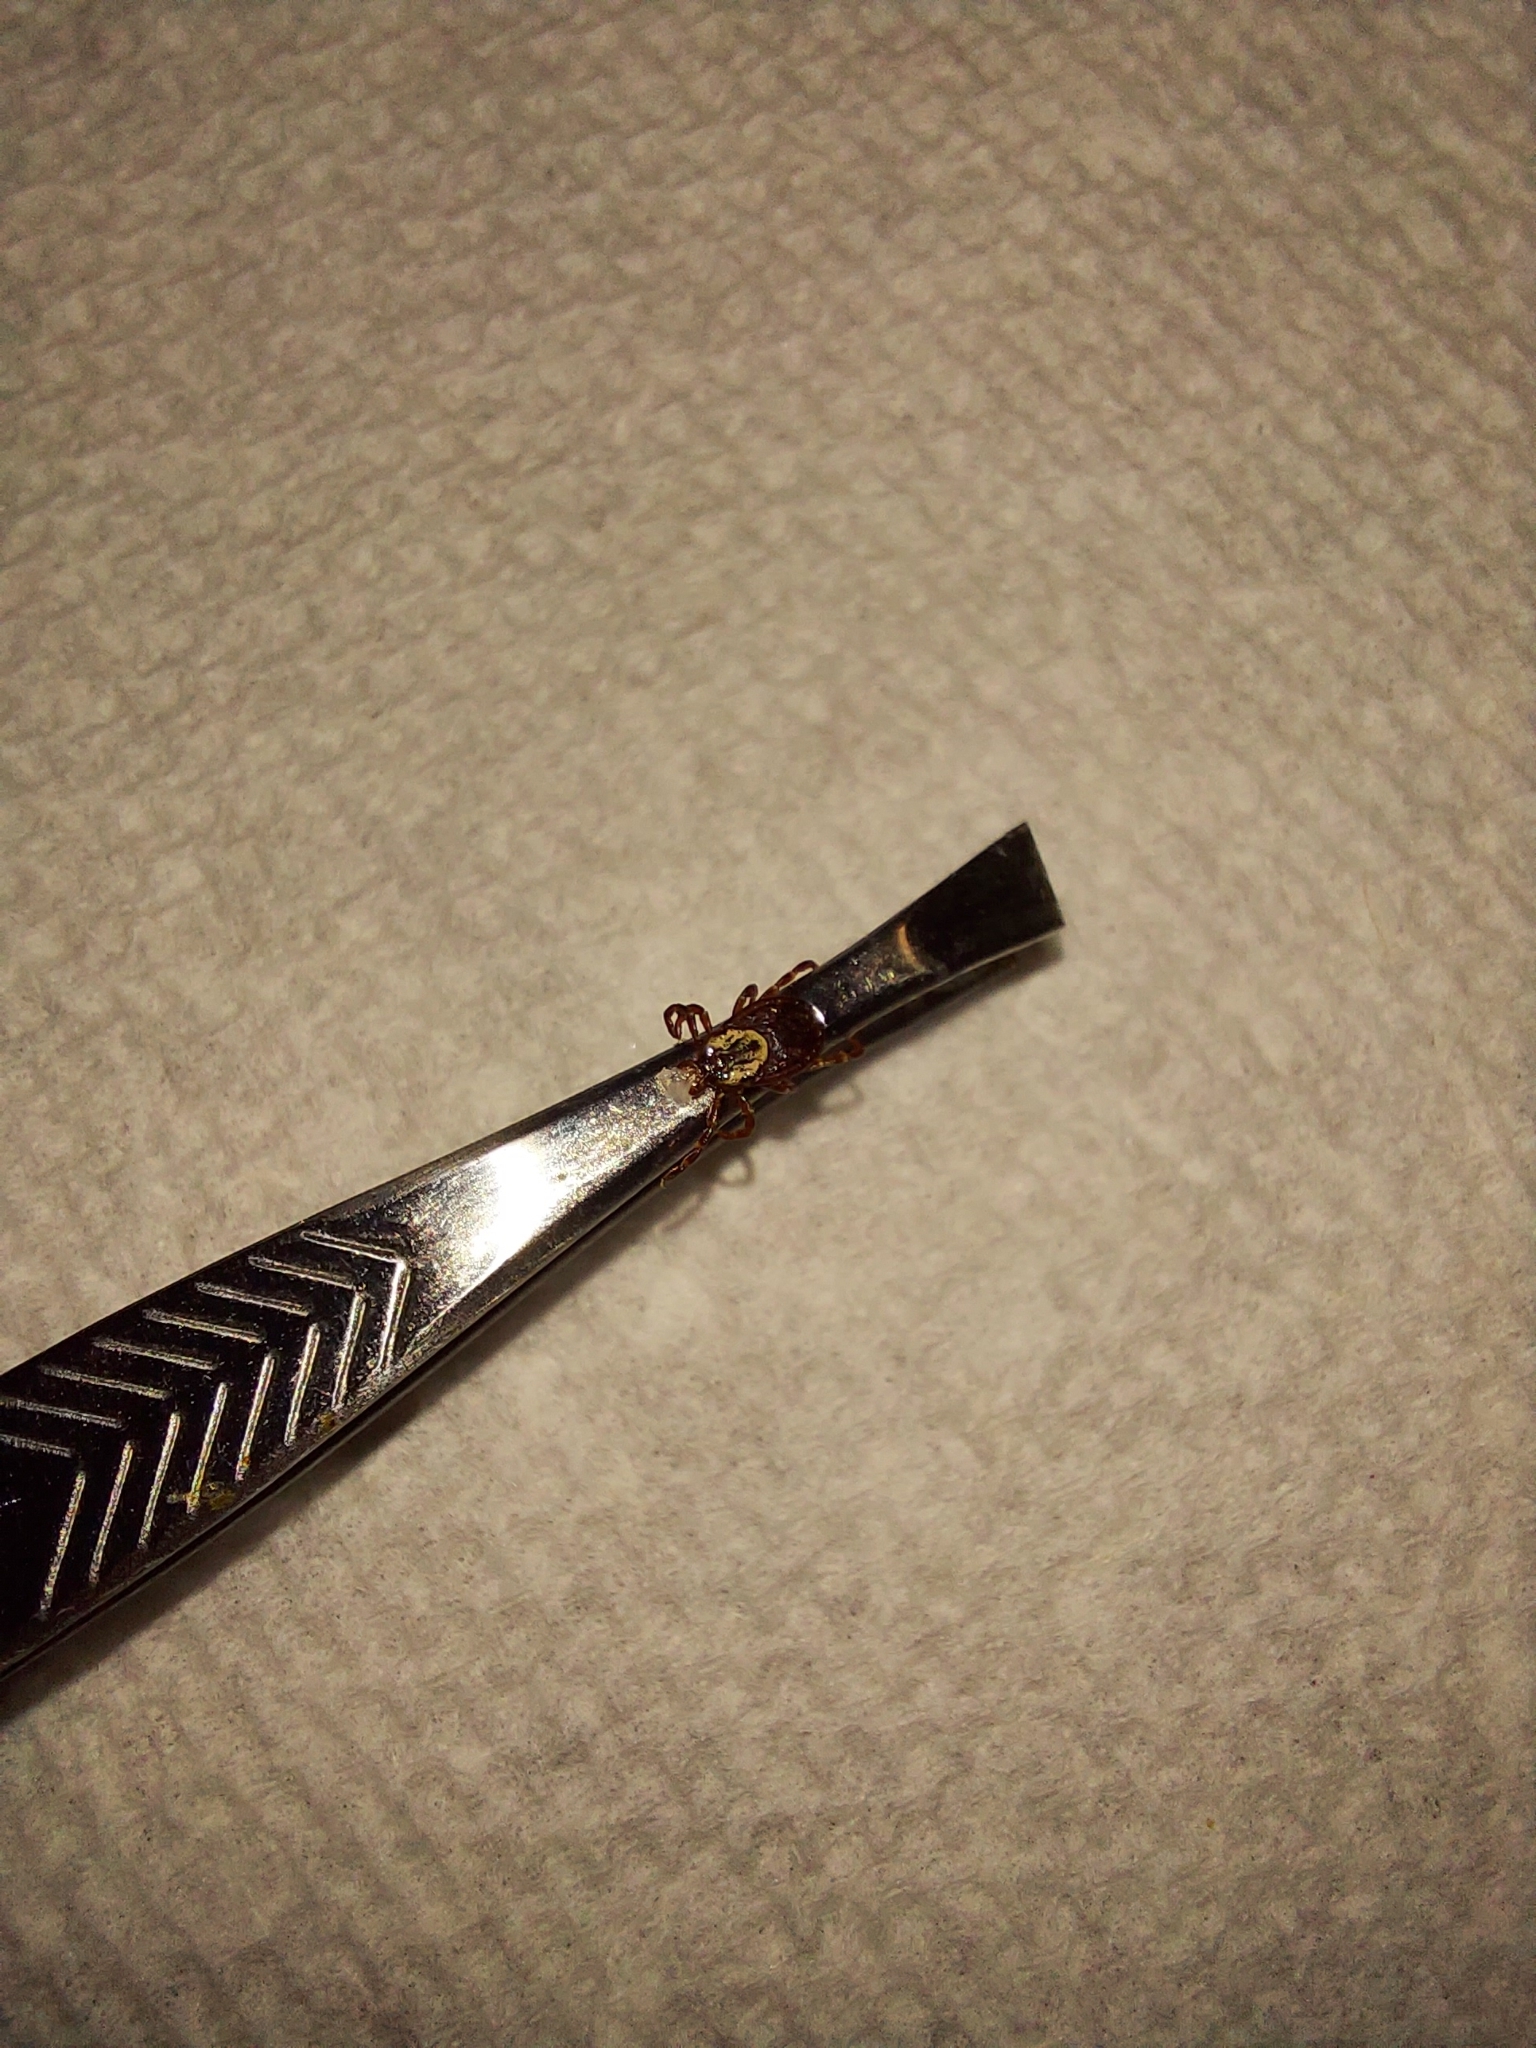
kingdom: Animalia
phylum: Arthropoda
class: Arachnida
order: Ixodida
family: Ixodidae
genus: Dermacentor
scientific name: Dermacentor variabilis
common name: American dog tick
